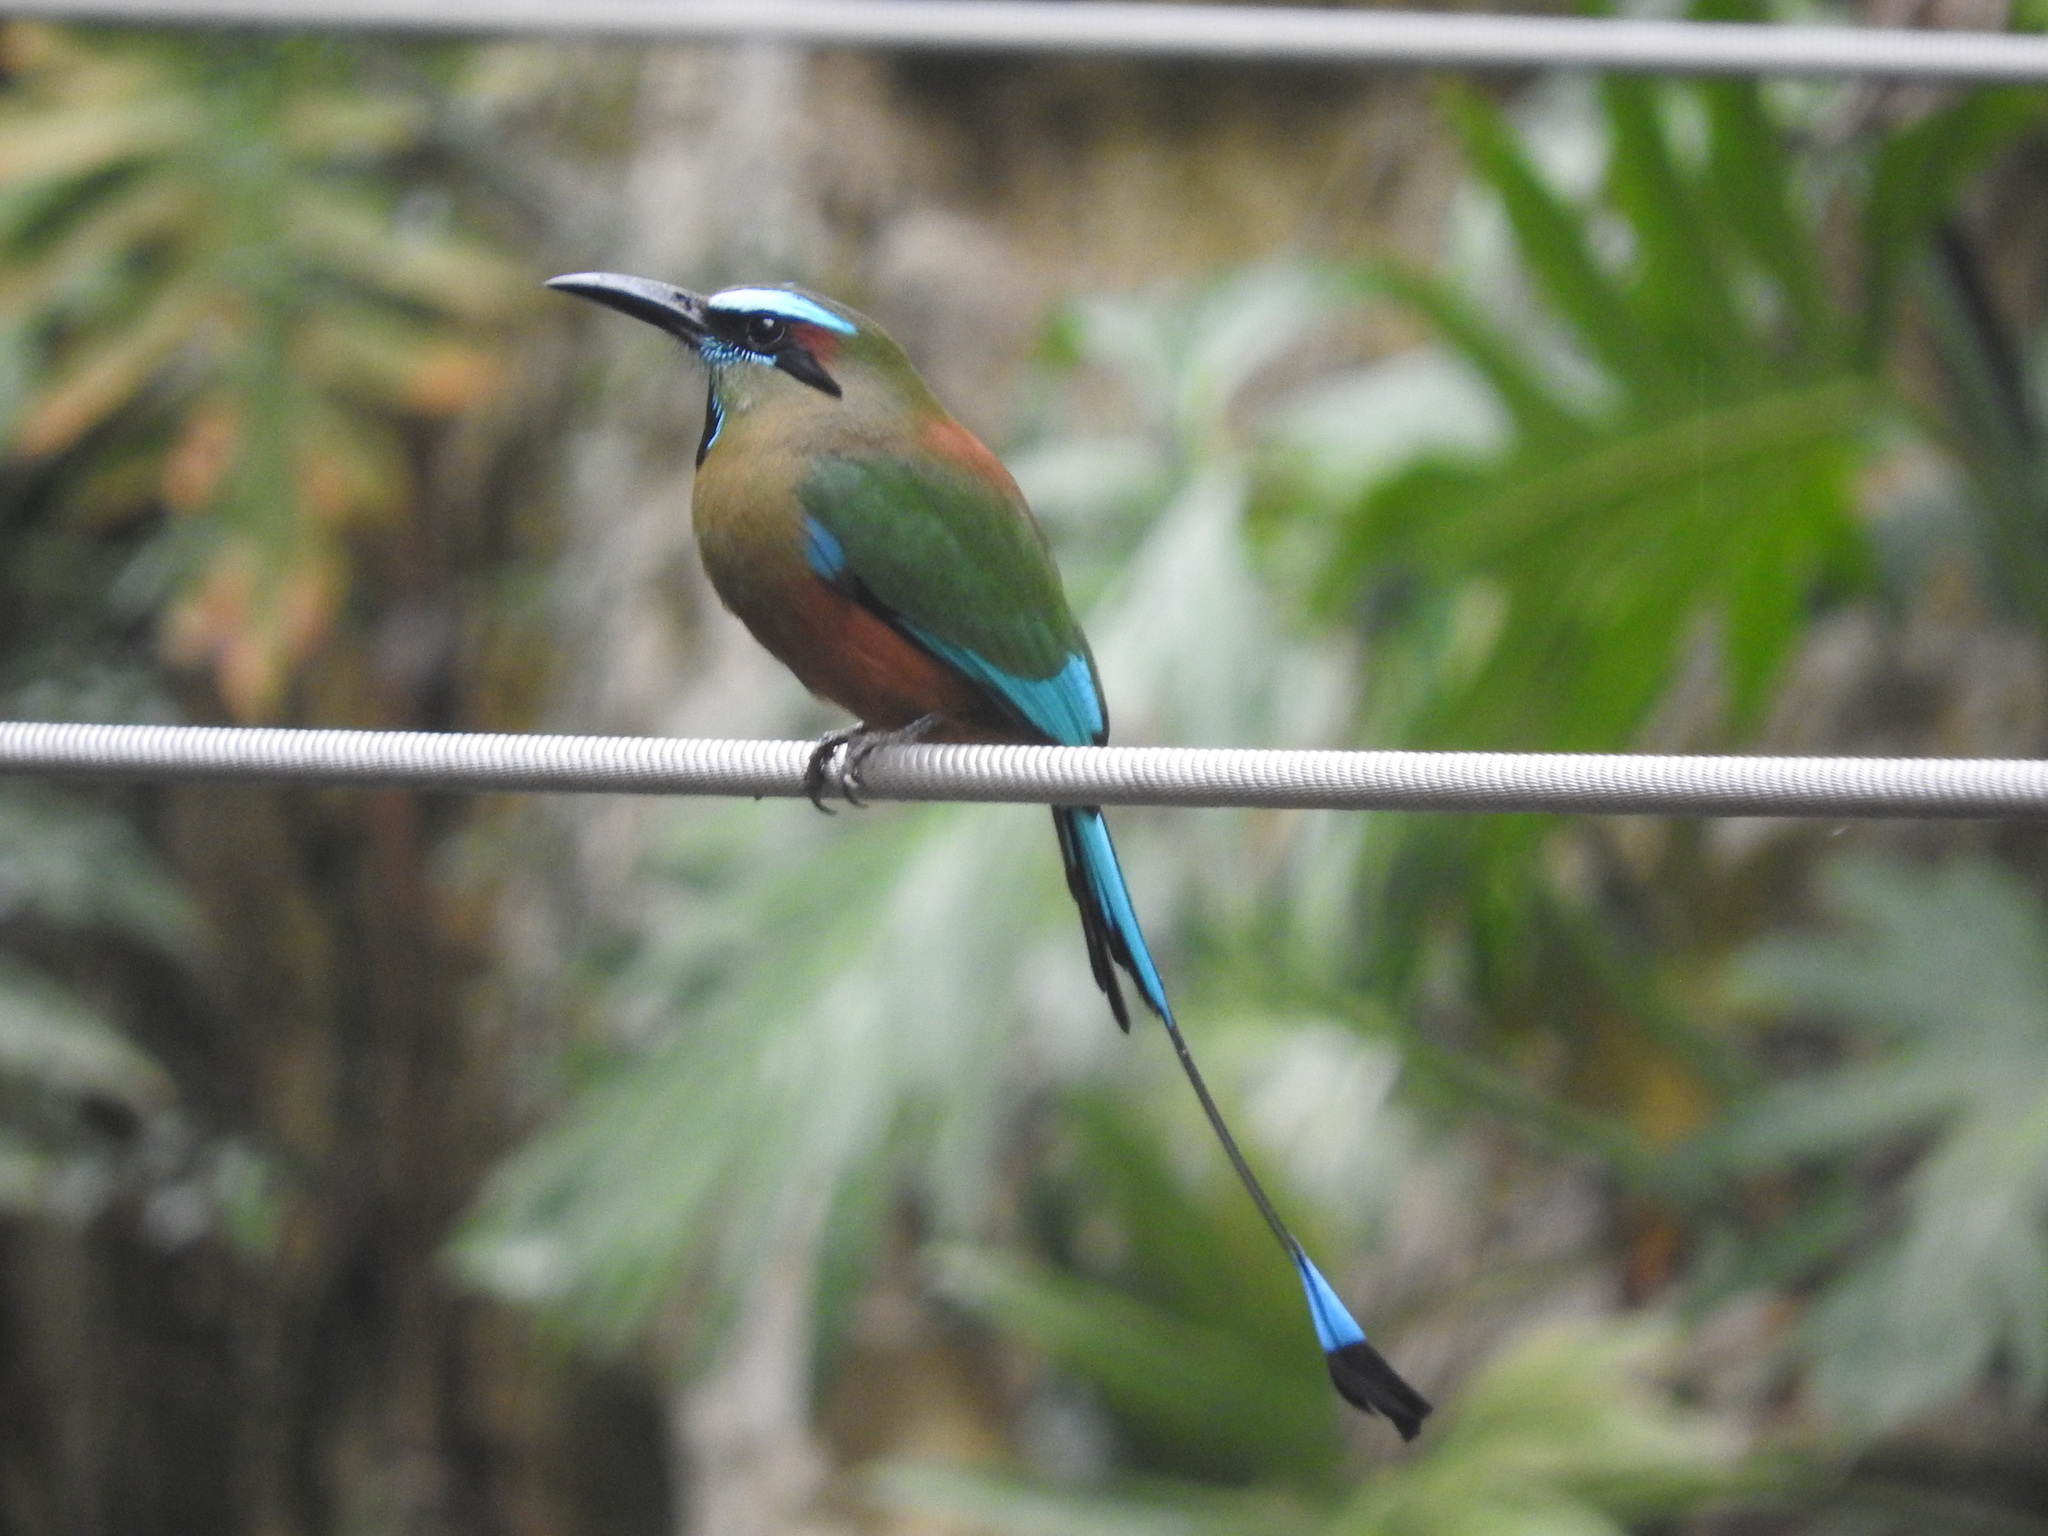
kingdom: Animalia
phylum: Chordata
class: Aves
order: Coraciiformes
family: Momotidae
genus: Eumomota
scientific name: Eumomota superciliosa
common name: Turquoise-browed motmot
